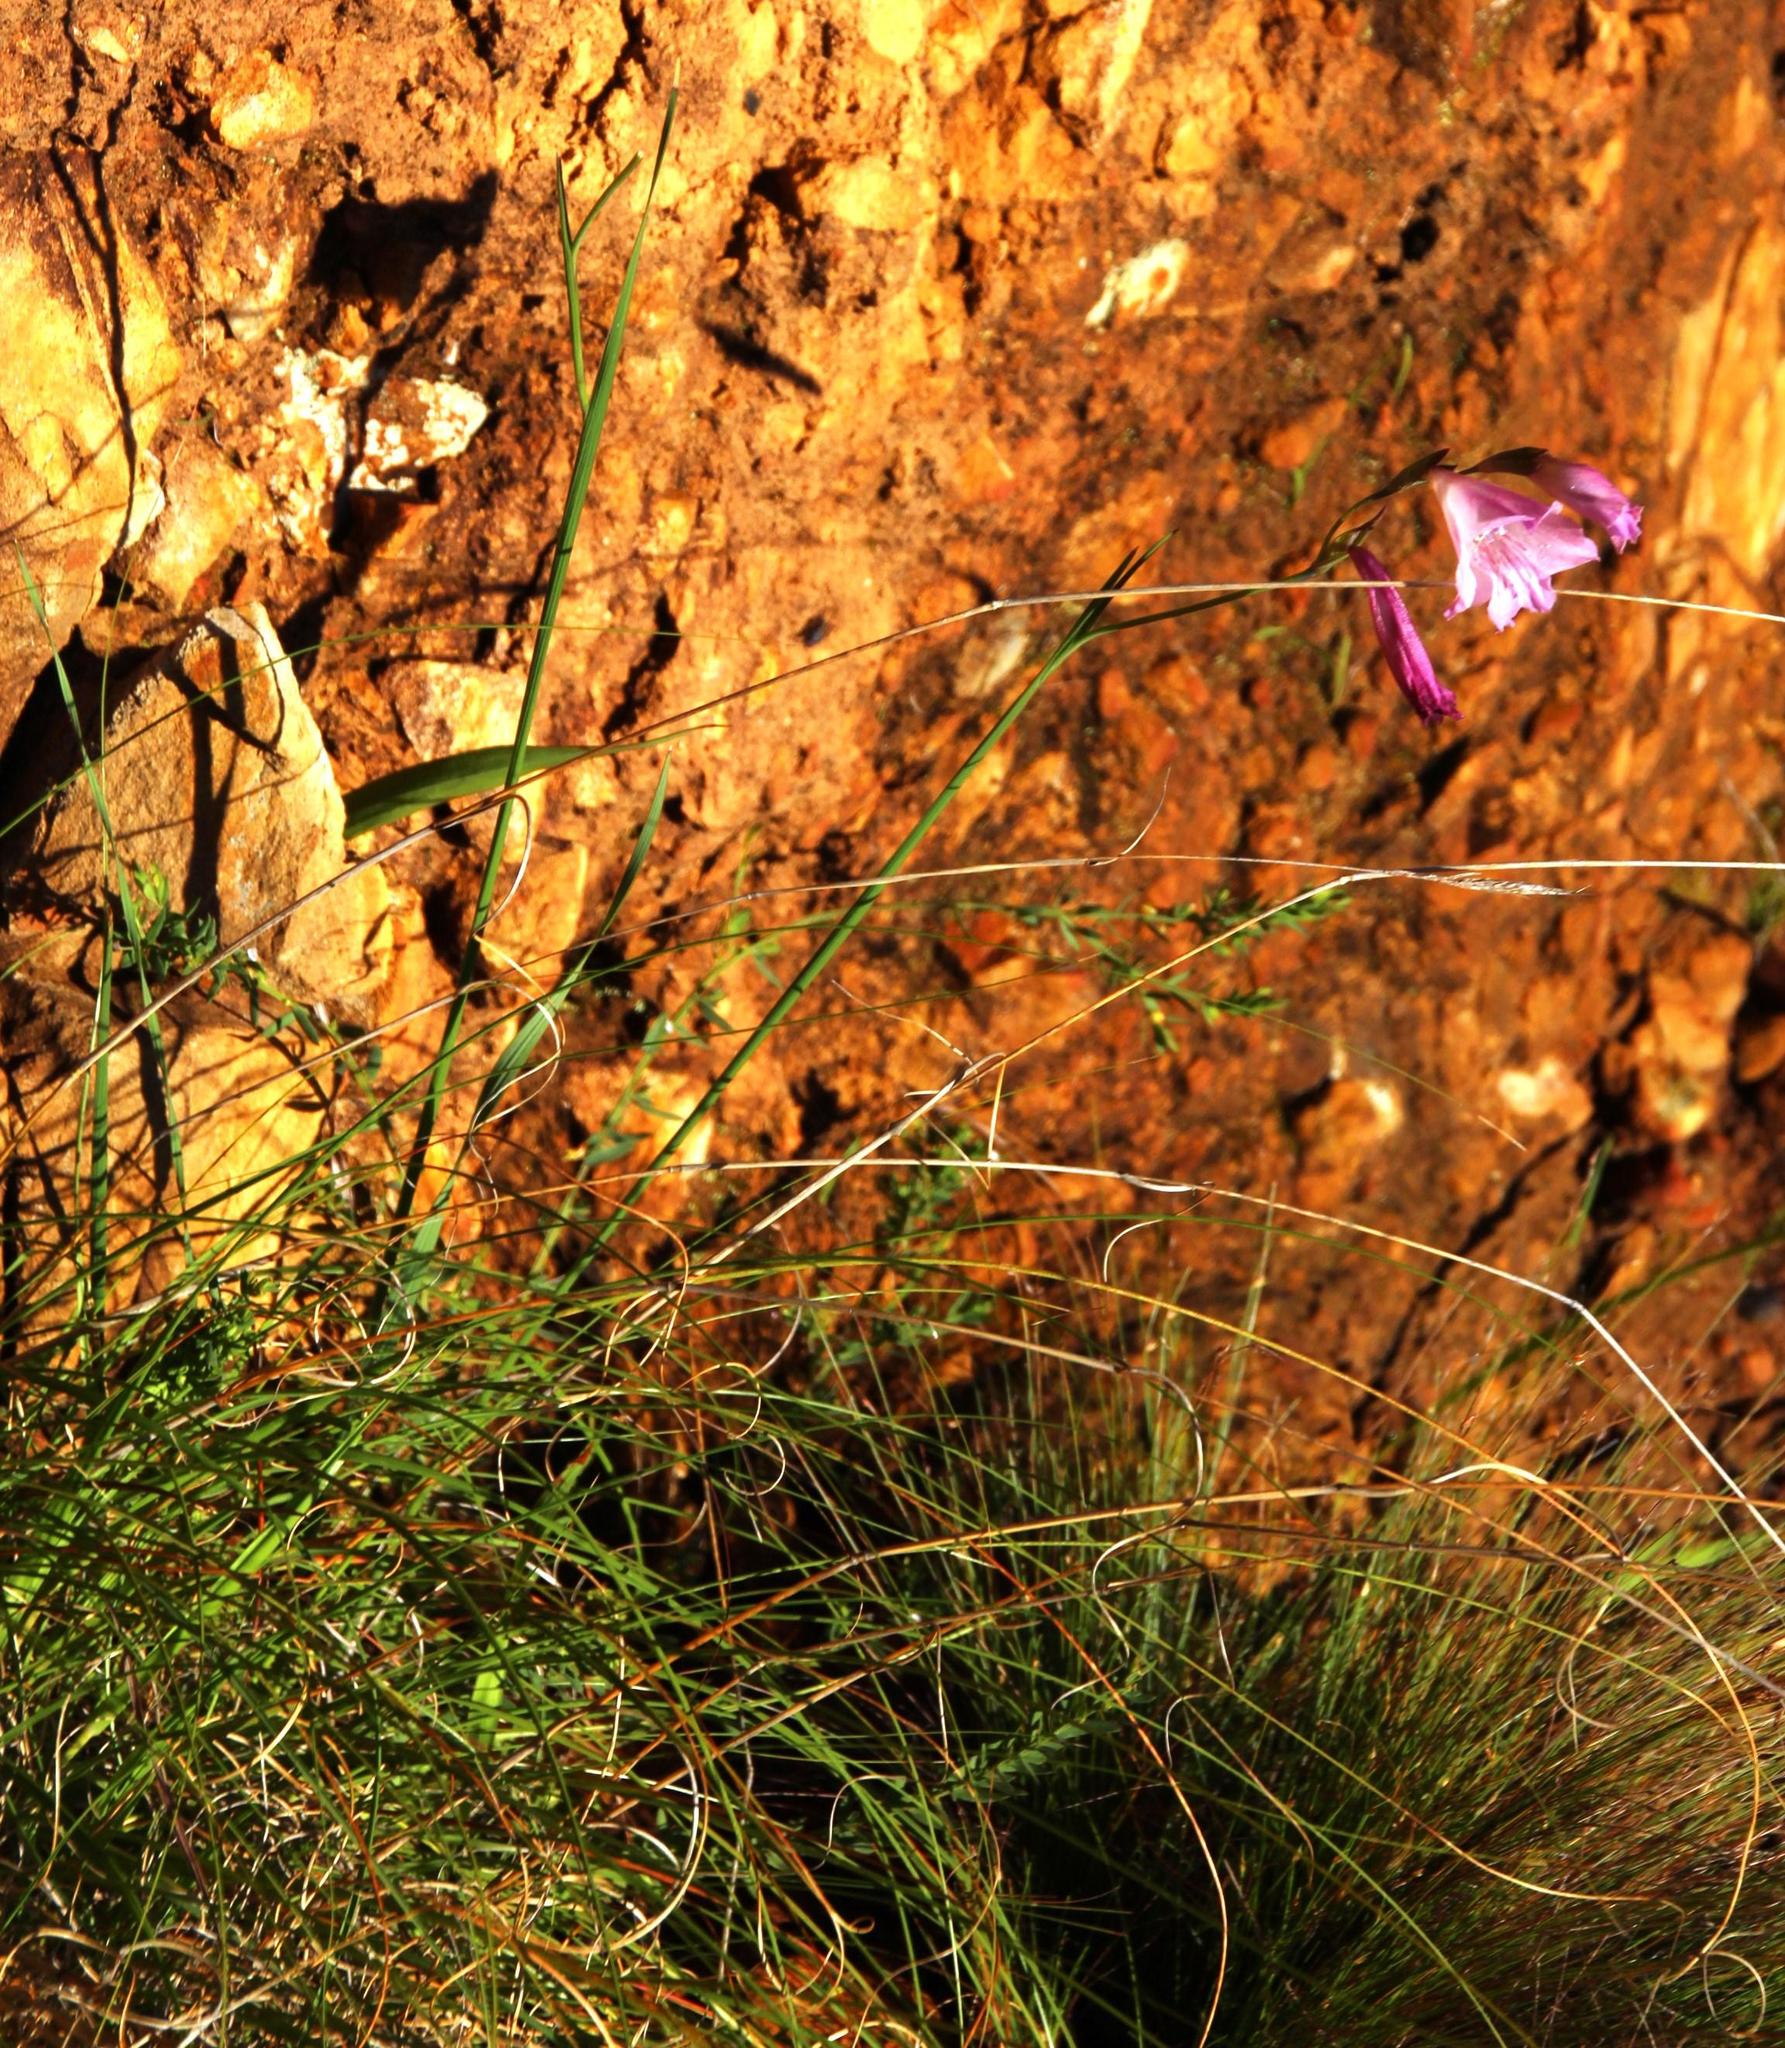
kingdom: Plantae
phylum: Tracheophyta
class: Liliopsida
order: Asparagales
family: Iridaceae
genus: Gladiolus
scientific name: Gladiolus hirsutus
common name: Small pink afrikaner
